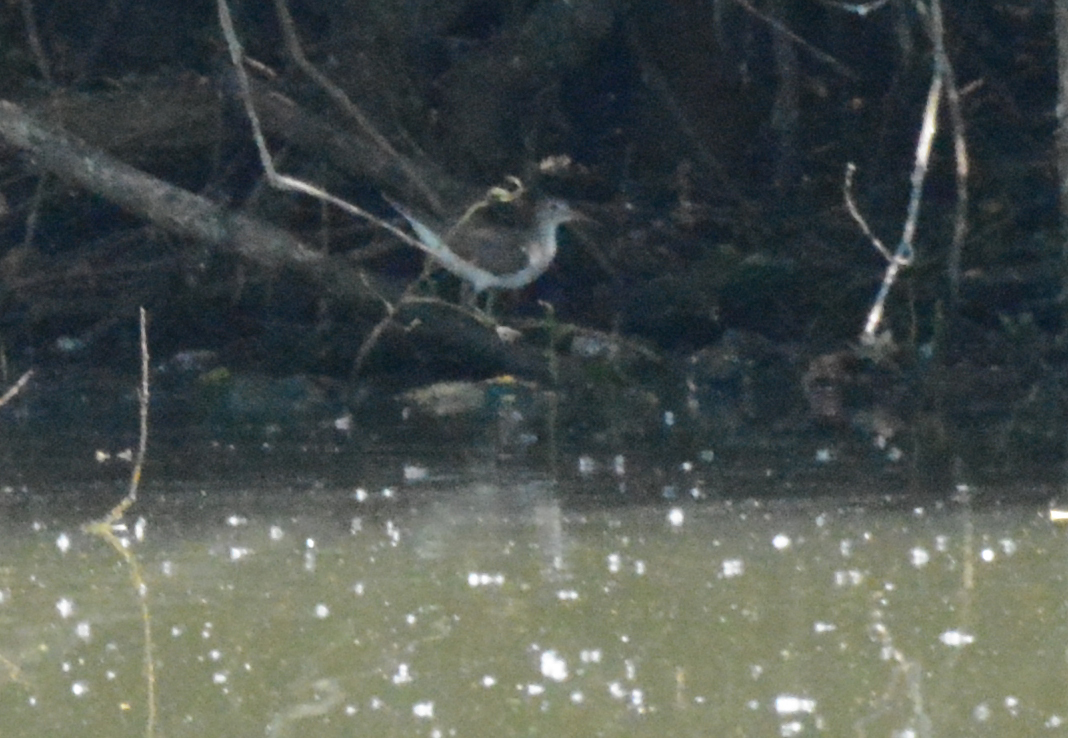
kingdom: Animalia
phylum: Chordata
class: Aves
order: Charadriiformes
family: Scolopacidae
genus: Tringa
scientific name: Tringa ochropus
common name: Green sandpiper
